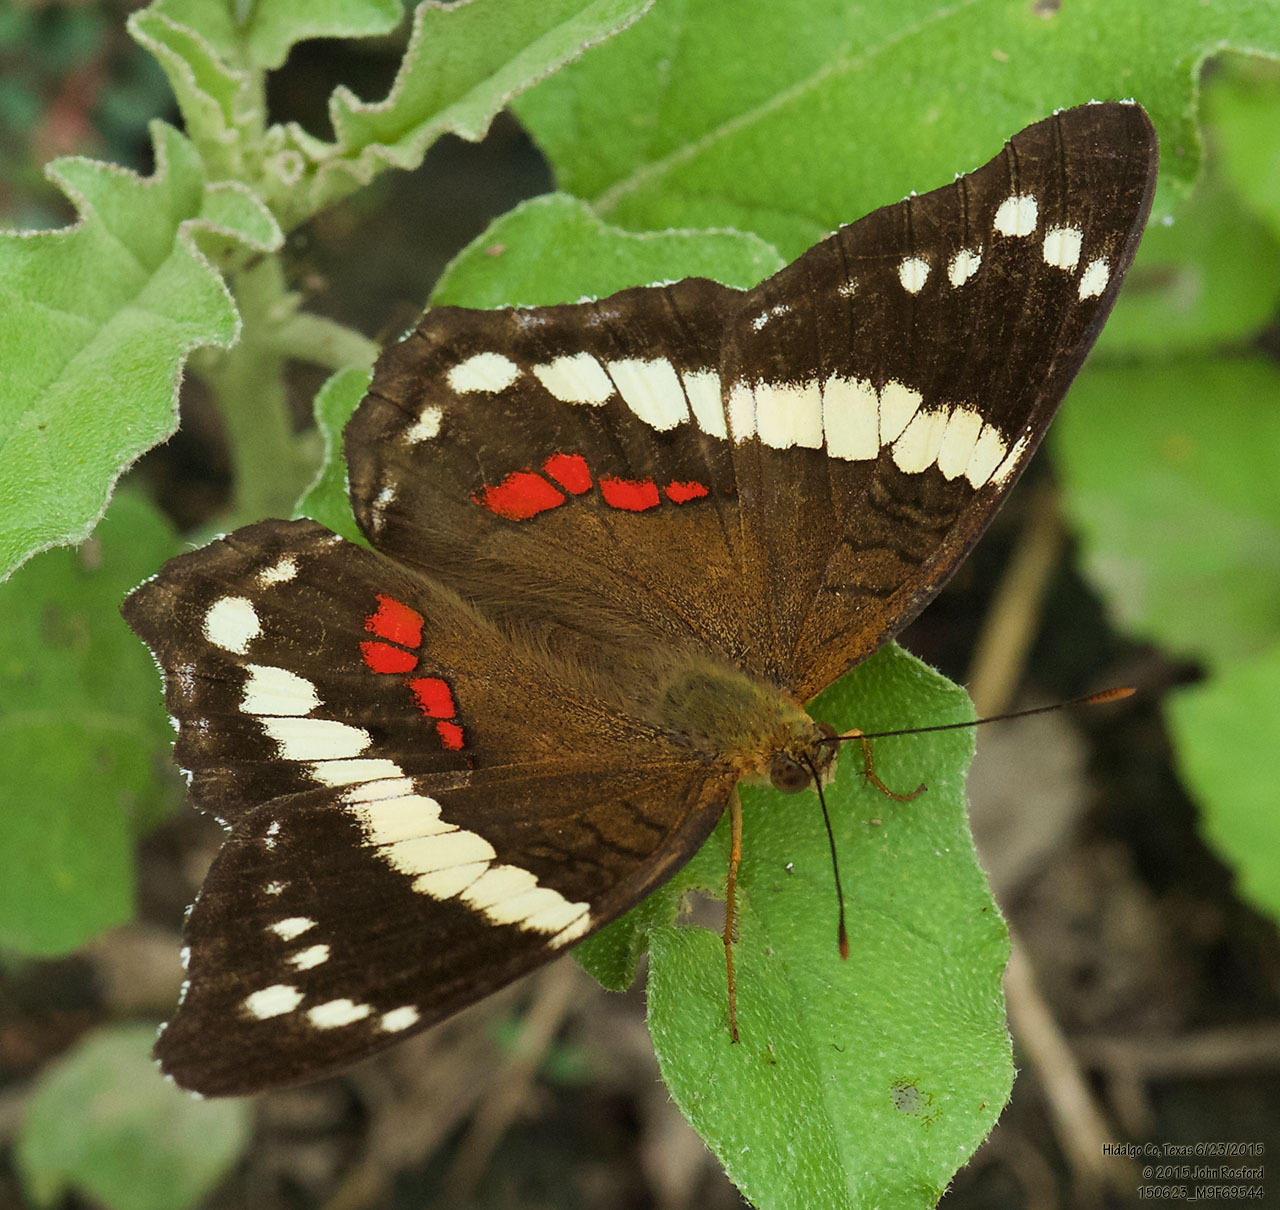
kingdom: Animalia
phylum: Arthropoda
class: Insecta
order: Lepidoptera
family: Nymphalidae
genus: Anartia
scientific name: Anartia fatima
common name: Banded peacock
